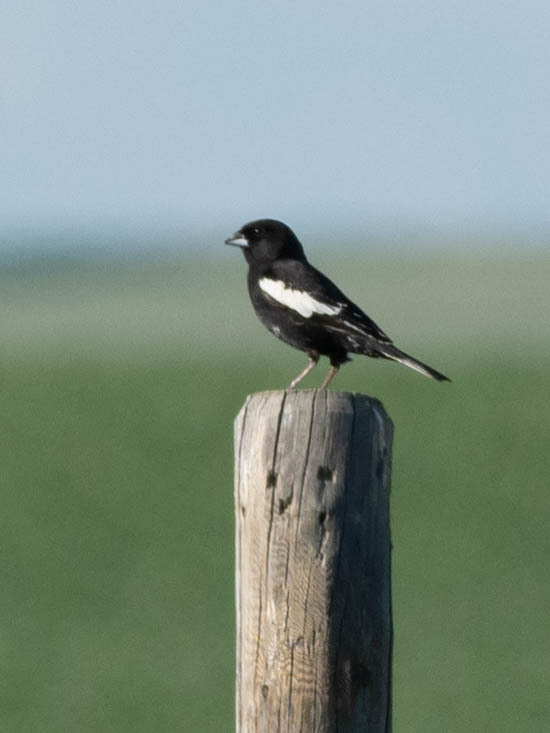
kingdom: Animalia
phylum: Chordata
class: Aves
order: Passeriformes
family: Passerellidae
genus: Calamospiza
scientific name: Calamospiza melanocorys
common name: Lark bunting
